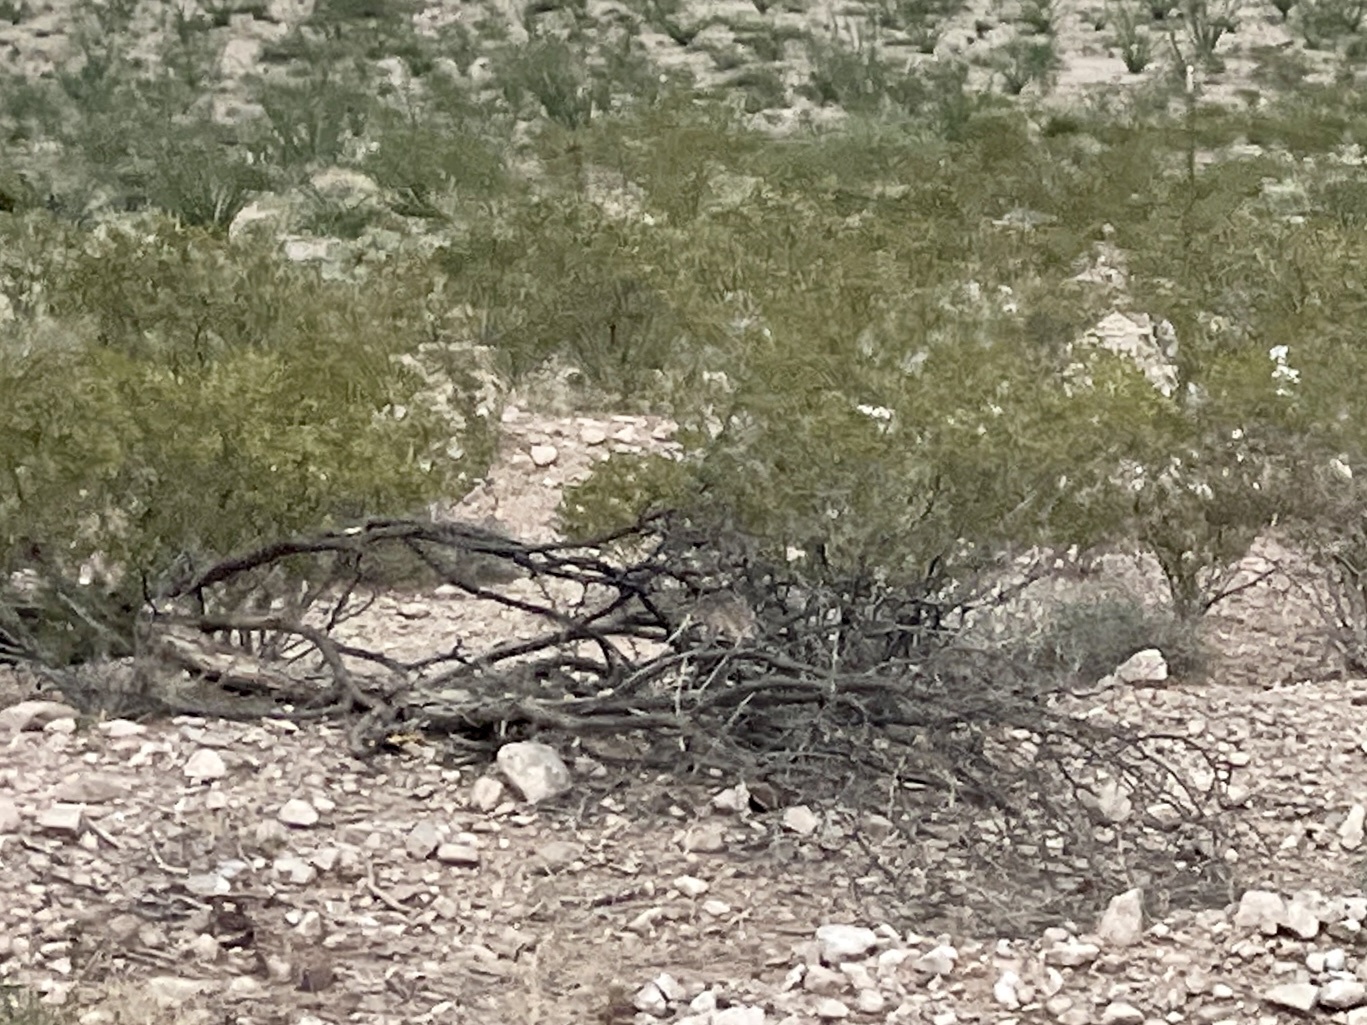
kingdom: Plantae
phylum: Tracheophyta
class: Magnoliopsida
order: Zygophyllales
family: Zygophyllaceae
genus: Larrea
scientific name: Larrea tridentata
